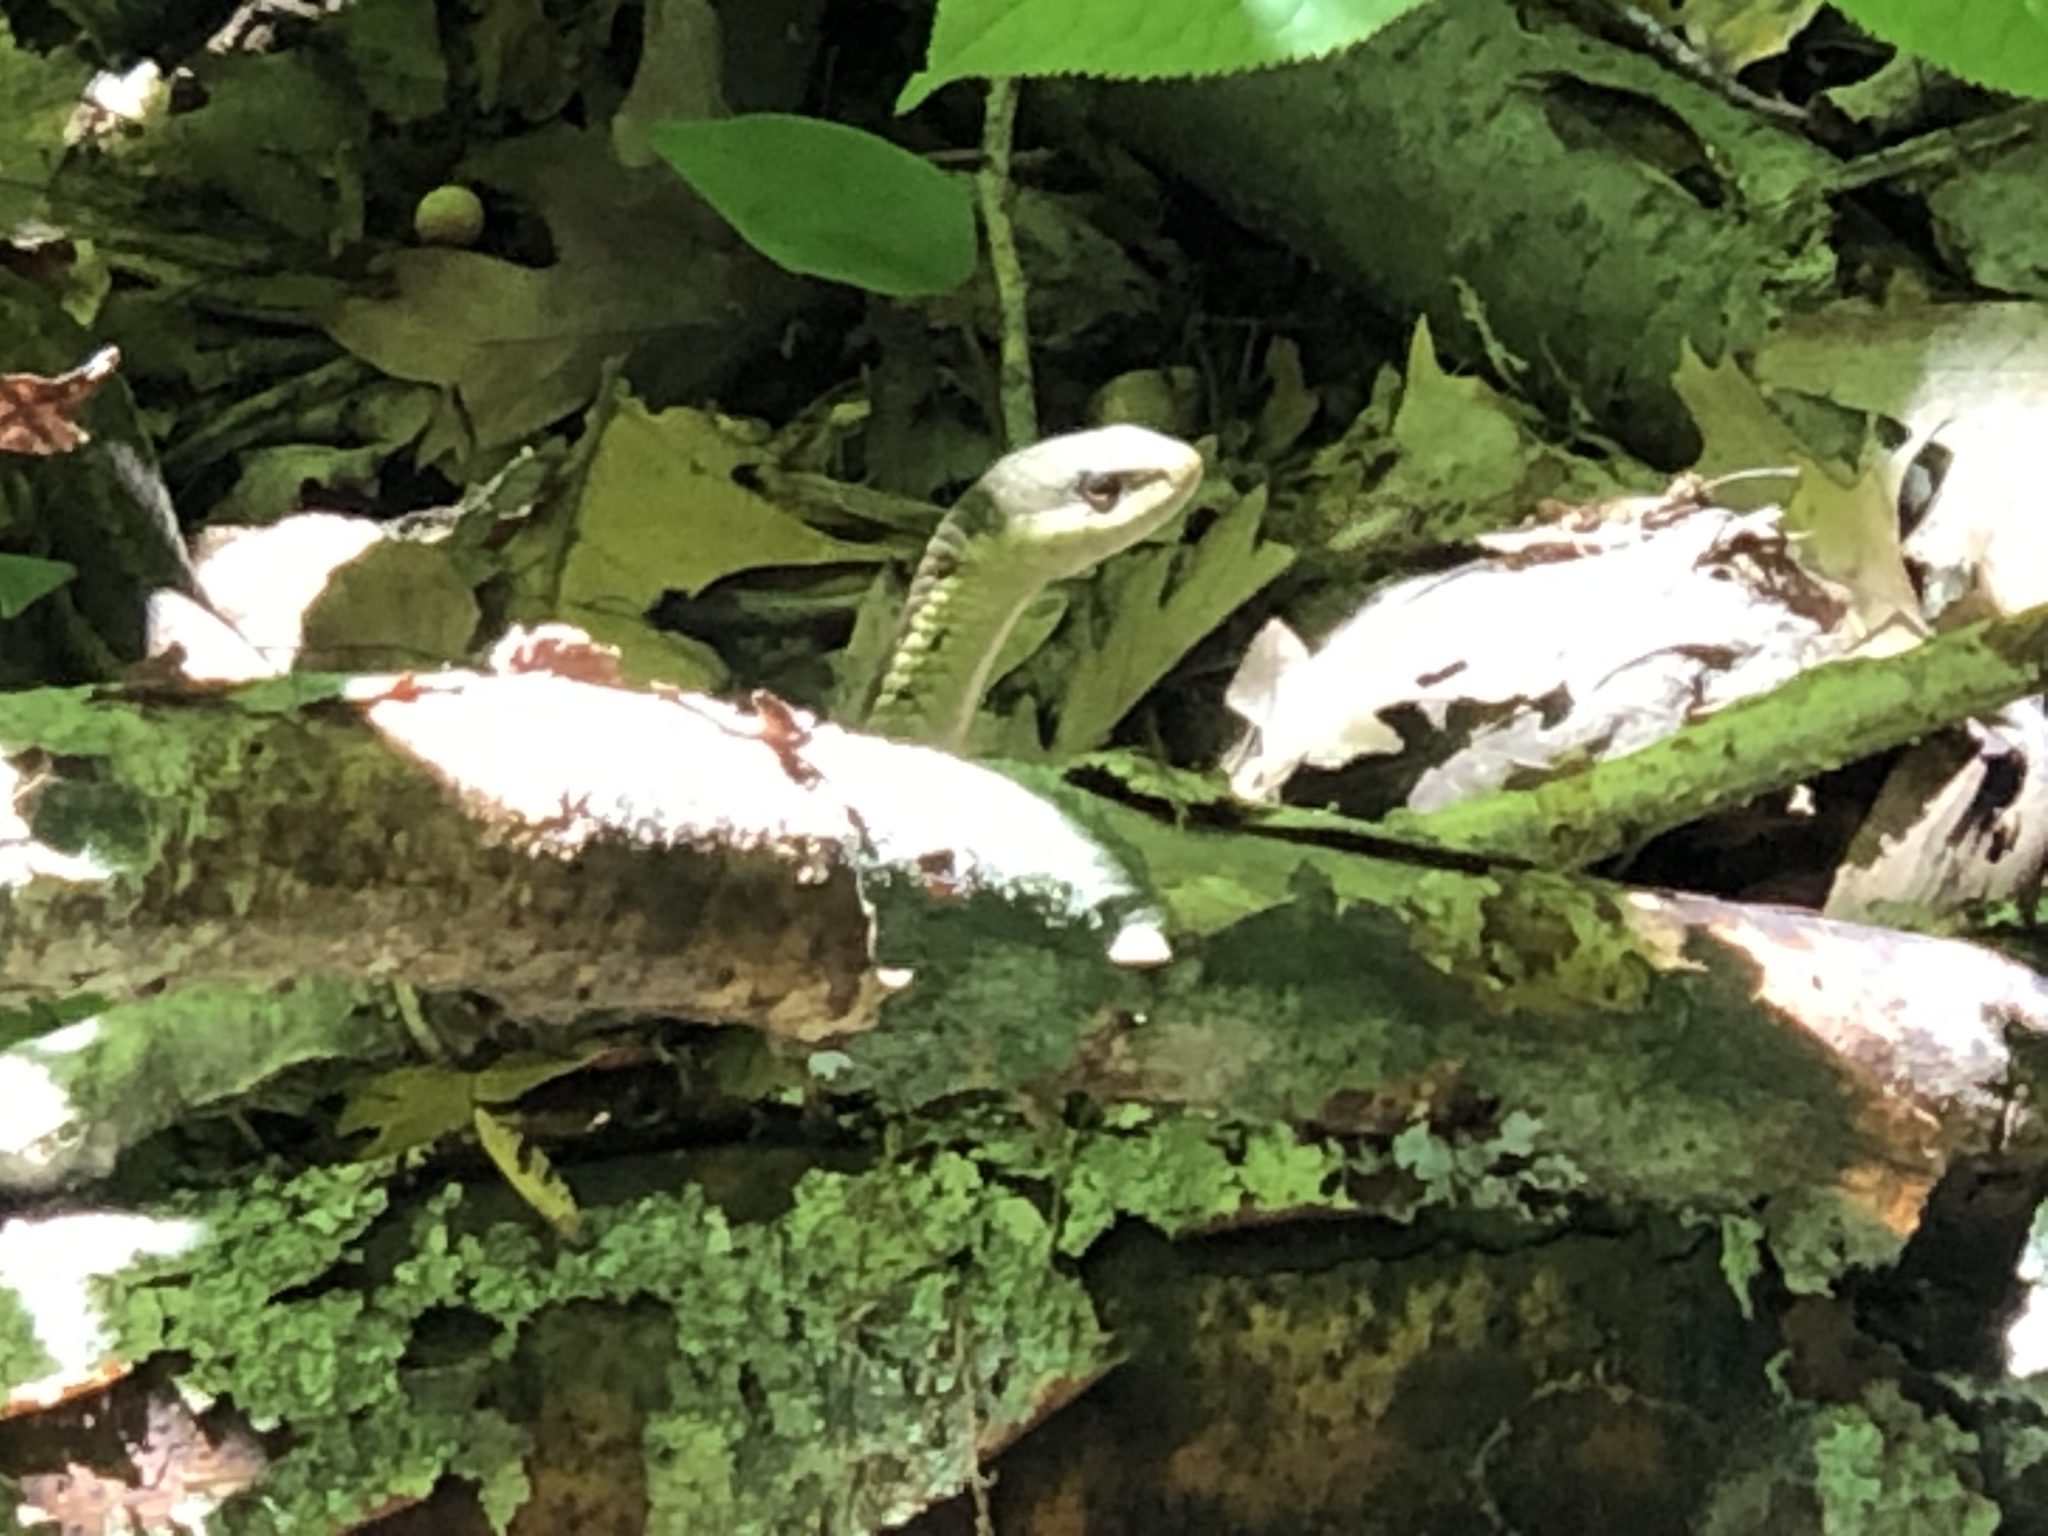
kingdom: Animalia
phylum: Chordata
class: Squamata
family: Colubridae
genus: Thamnophis
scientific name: Thamnophis sirtalis
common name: Common garter snake
